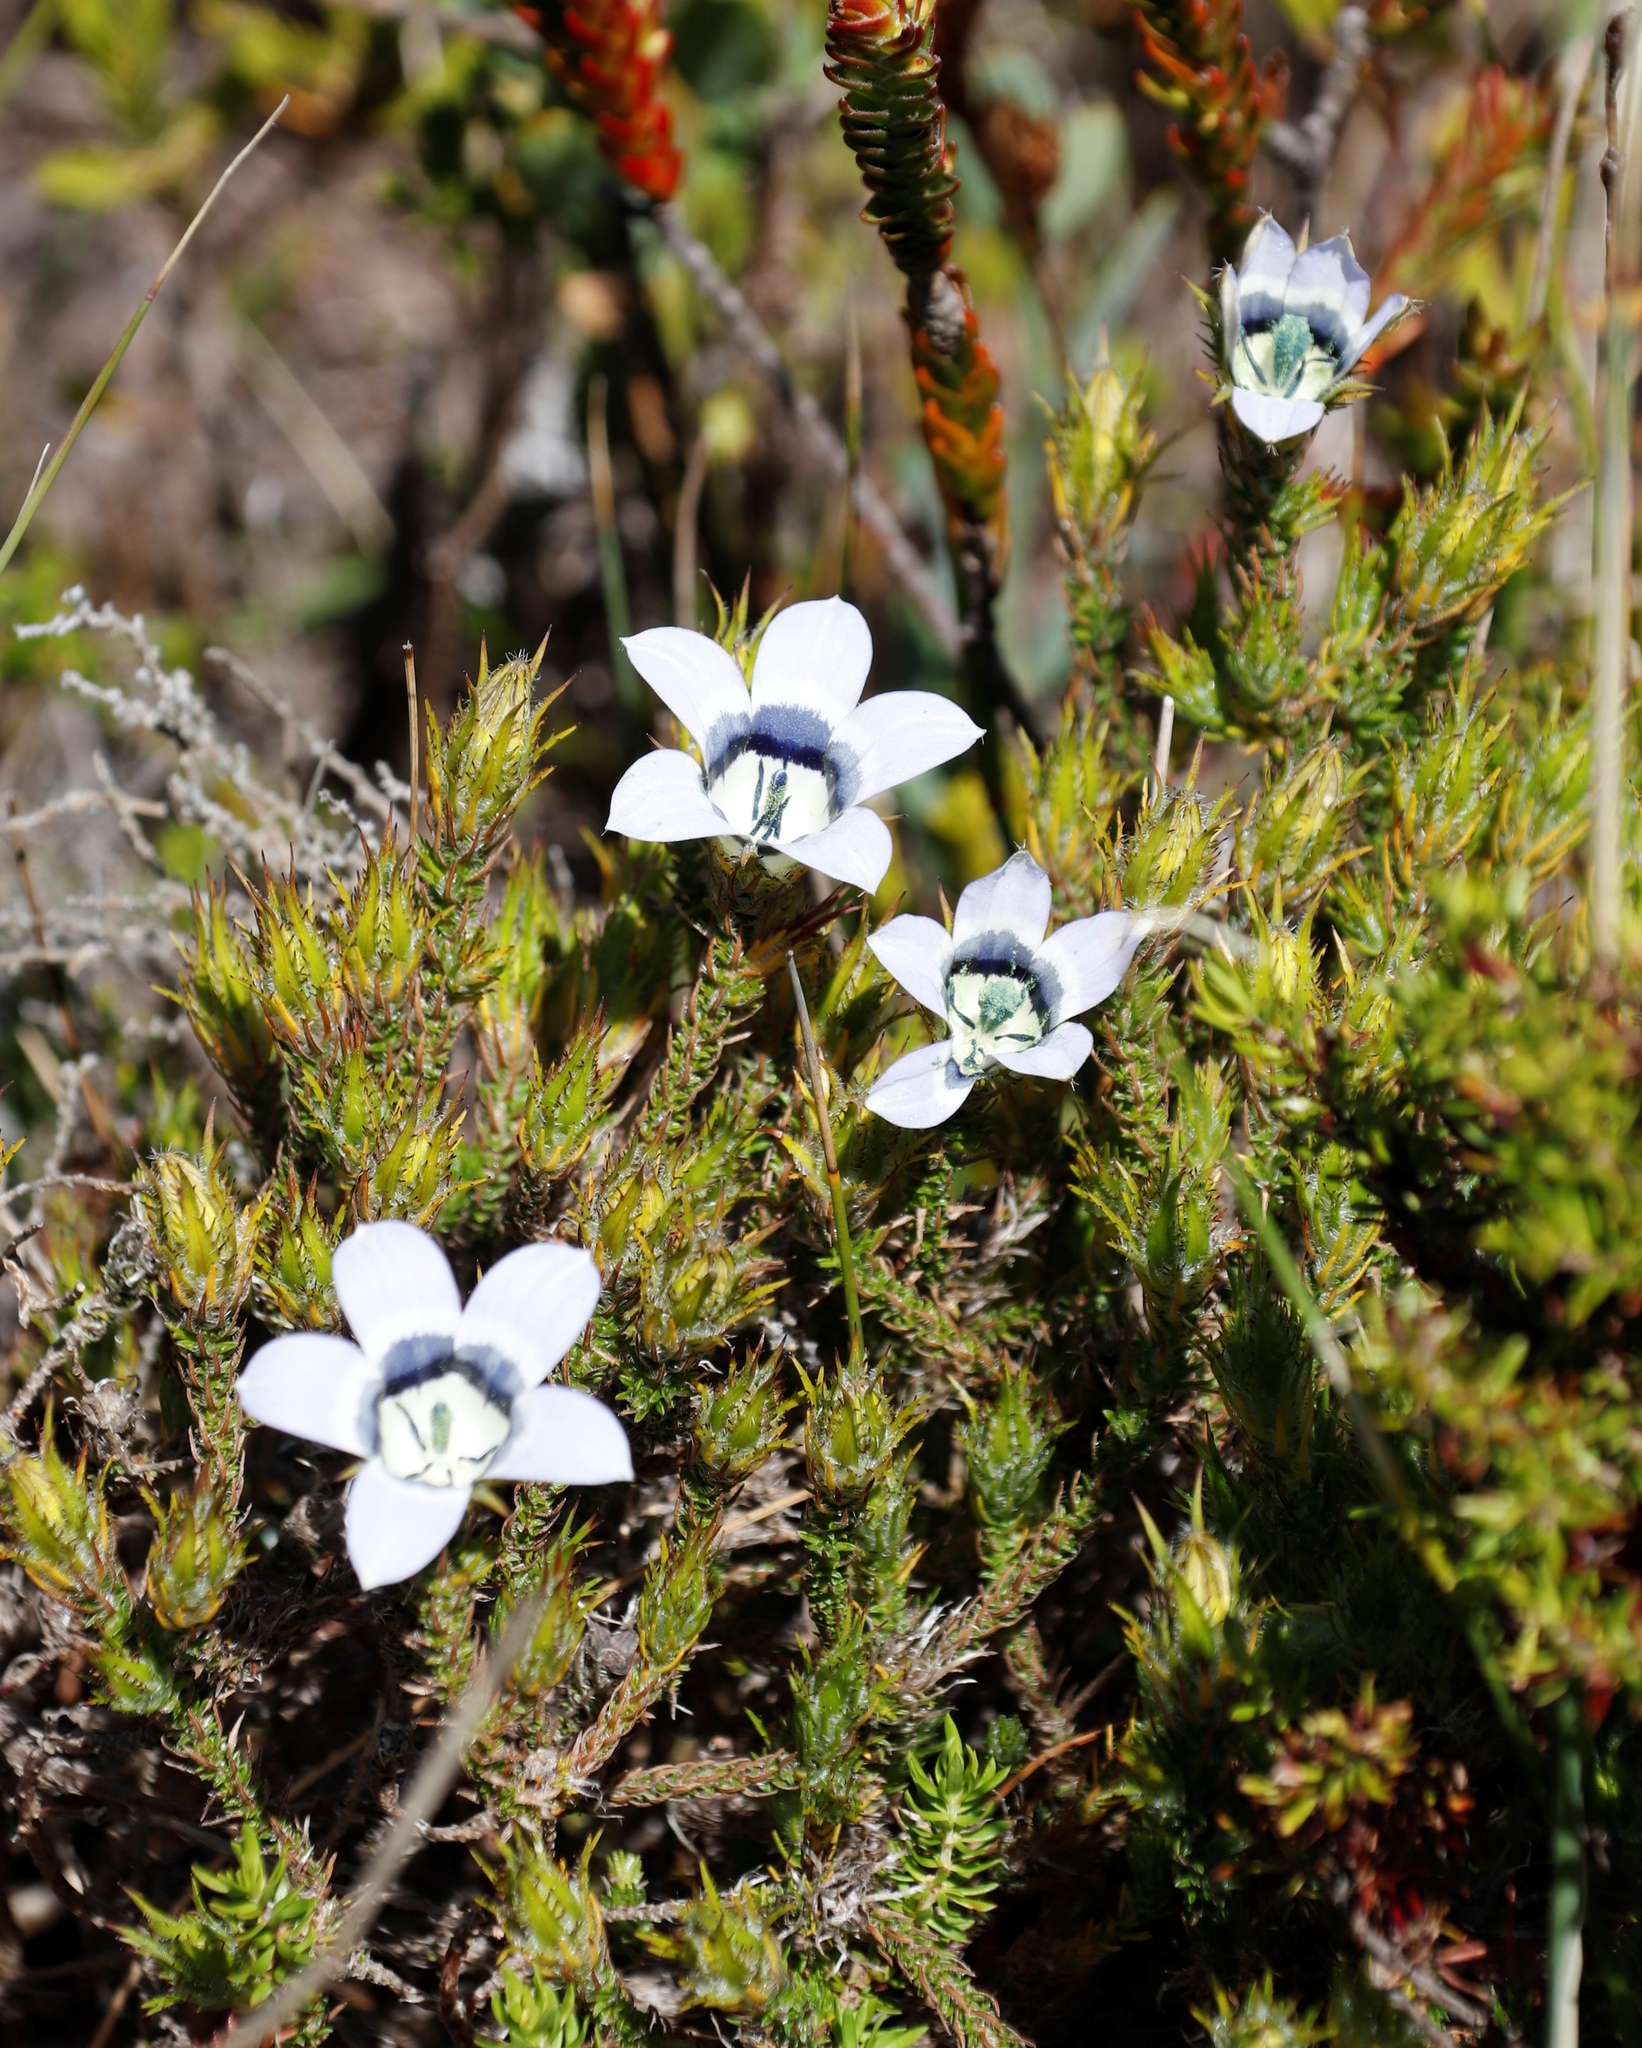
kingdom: Plantae
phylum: Tracheophyta
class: Magnoliopsida
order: Asterales
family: Campanulaceae
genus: Roella
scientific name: Roella ciliata
